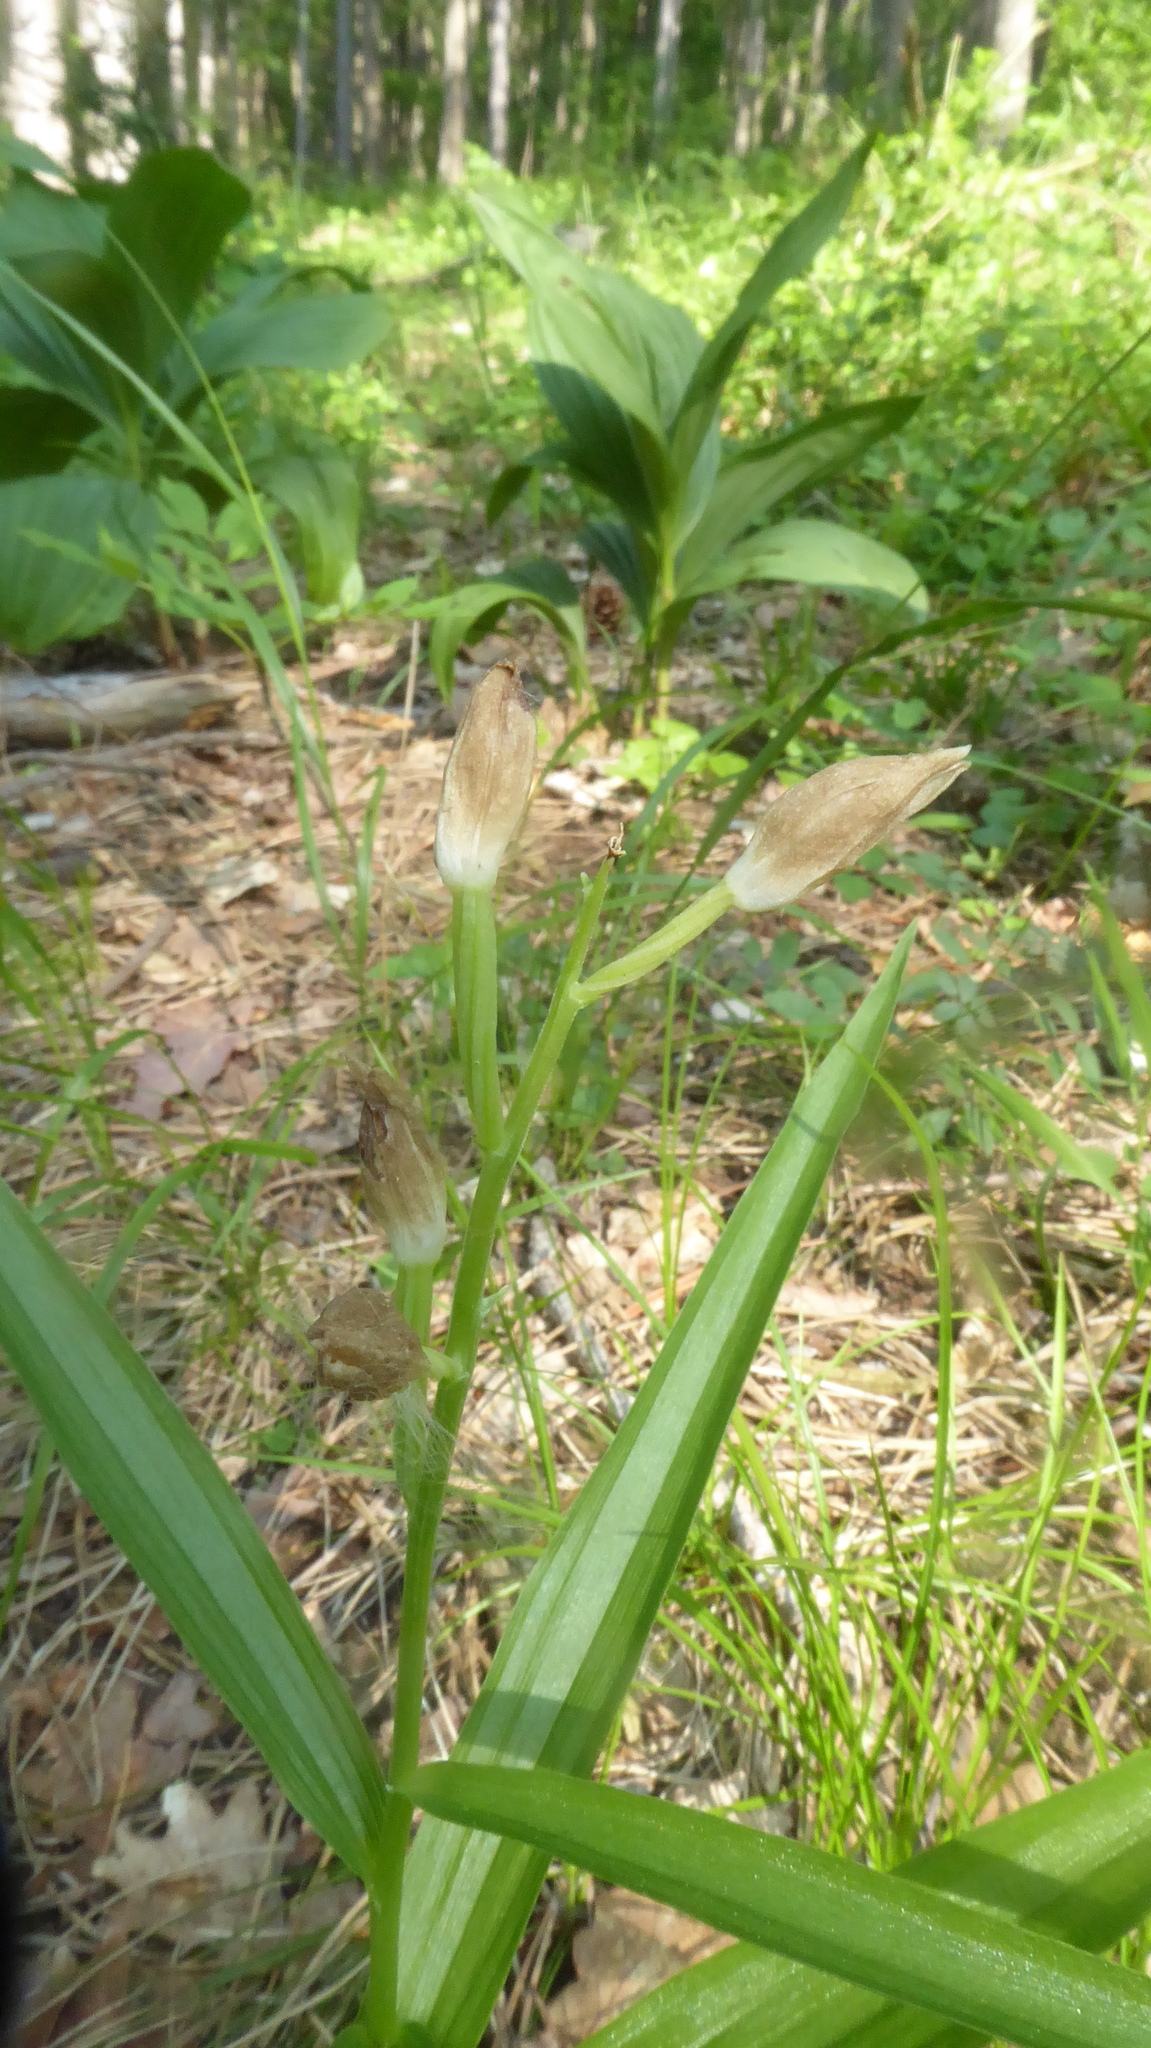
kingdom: Plantae
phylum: Tracheophyta
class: Liliopsida
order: Asparagales
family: Orchidaceae
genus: Cephalanthera
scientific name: Cephalanthera longifolia
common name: Narrow-leaved helleborine
